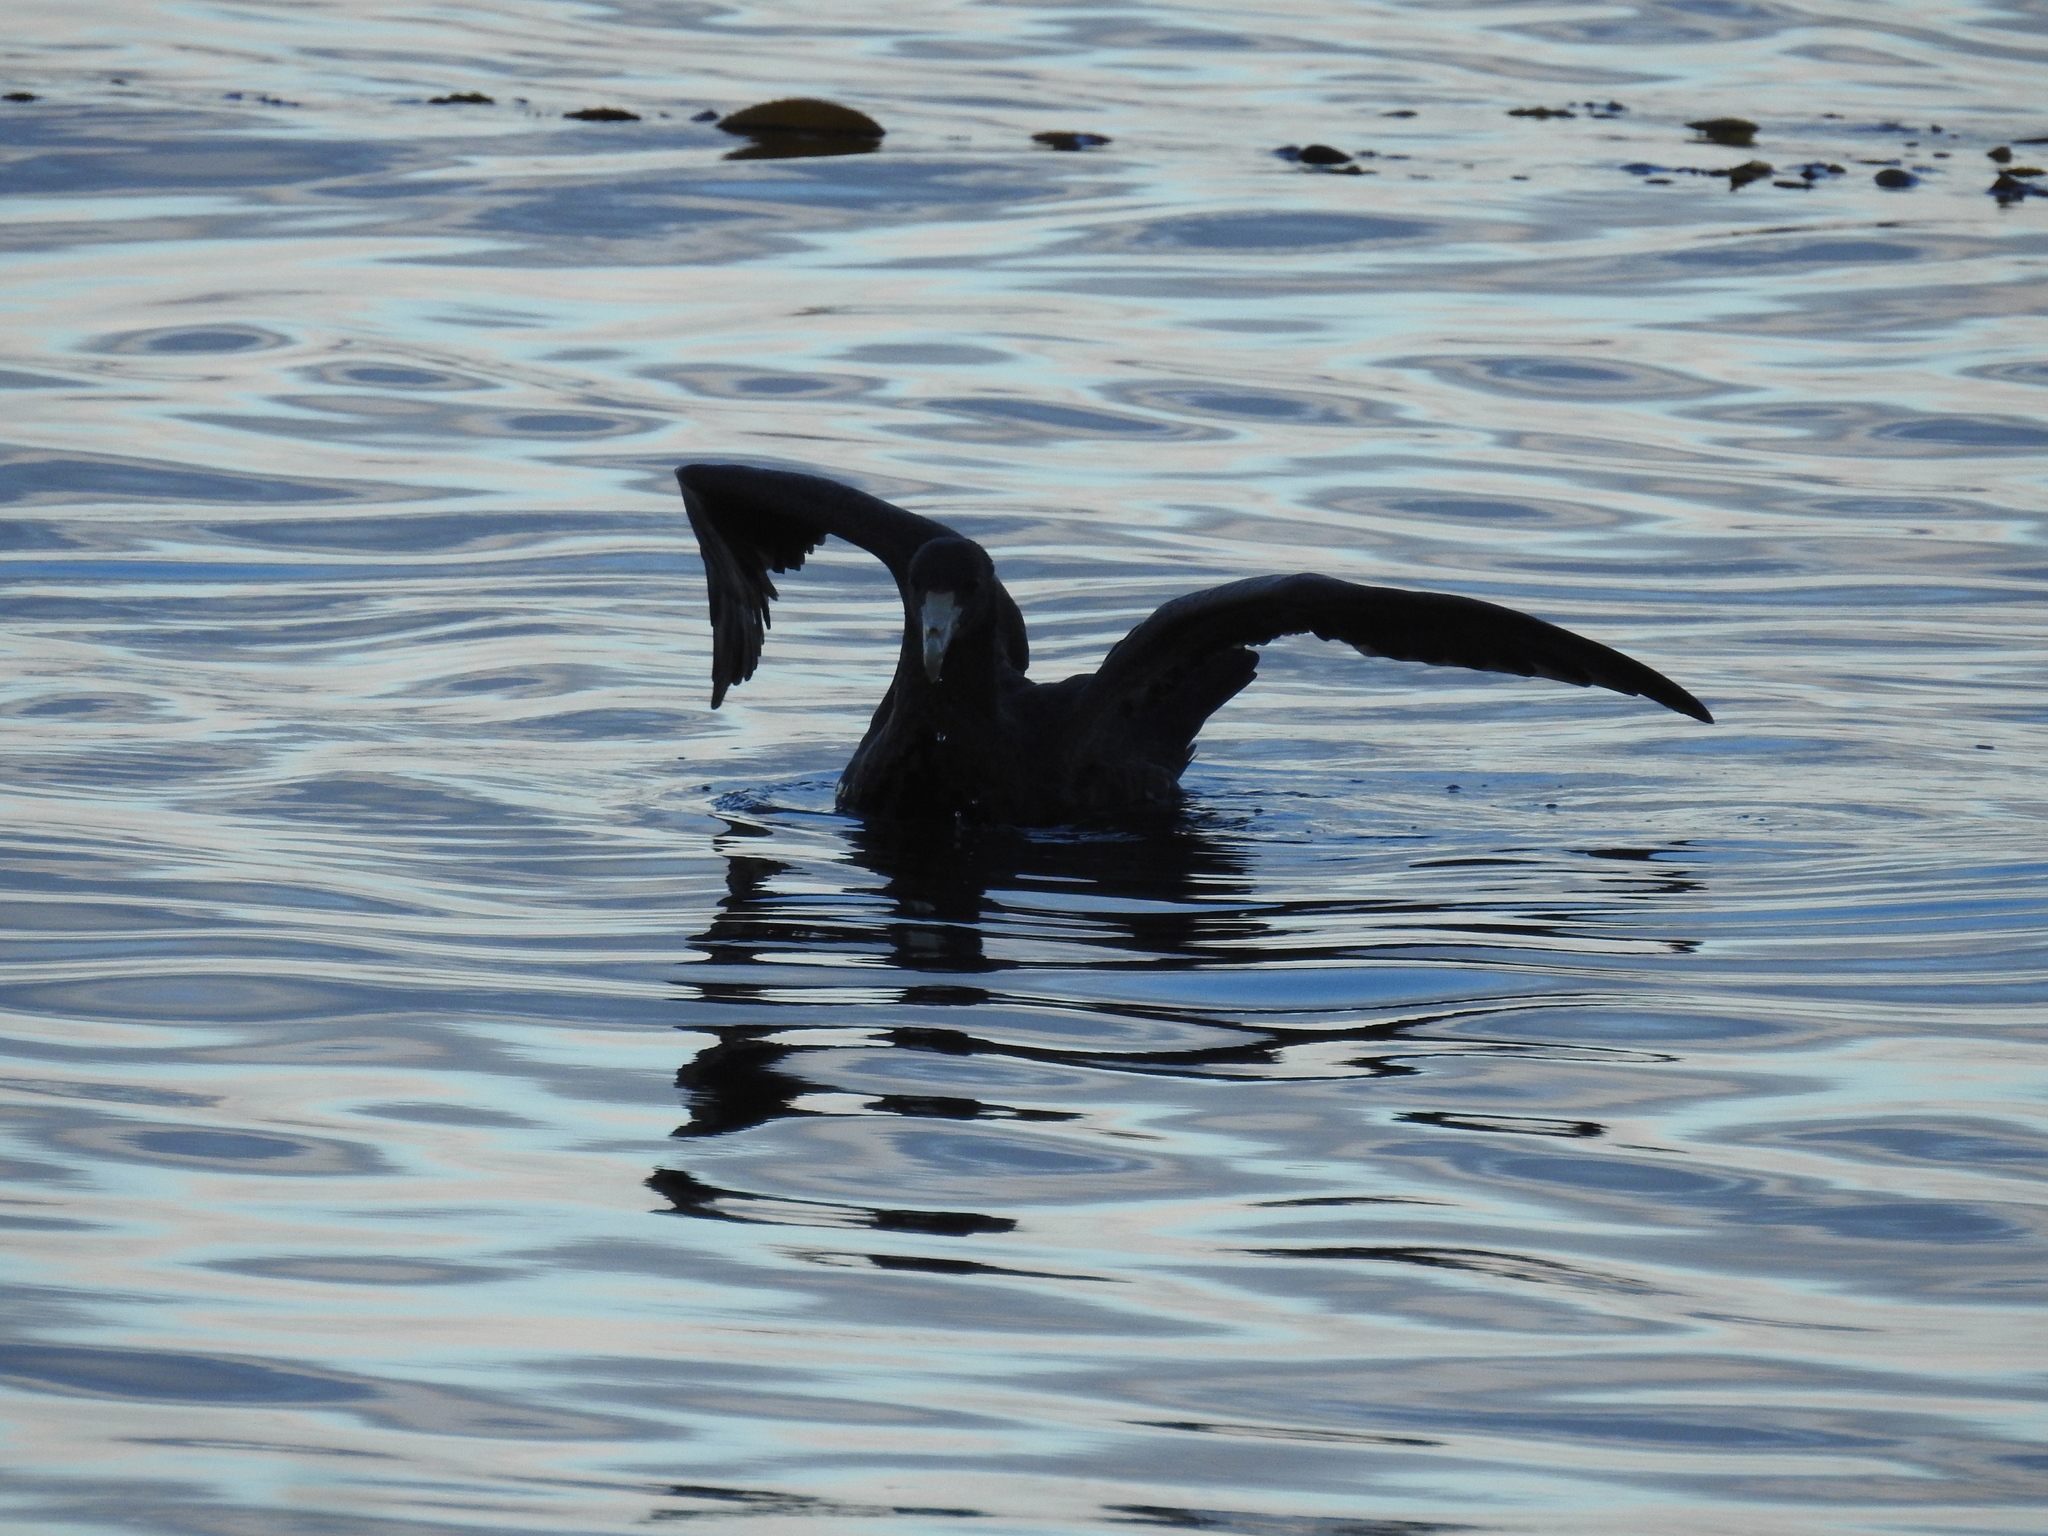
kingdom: Animalia
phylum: Chordata
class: Aves
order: Procellariiformes
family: Procellariidae
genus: Macronectes
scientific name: Macronectes giganteus
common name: Southern giant petrel
